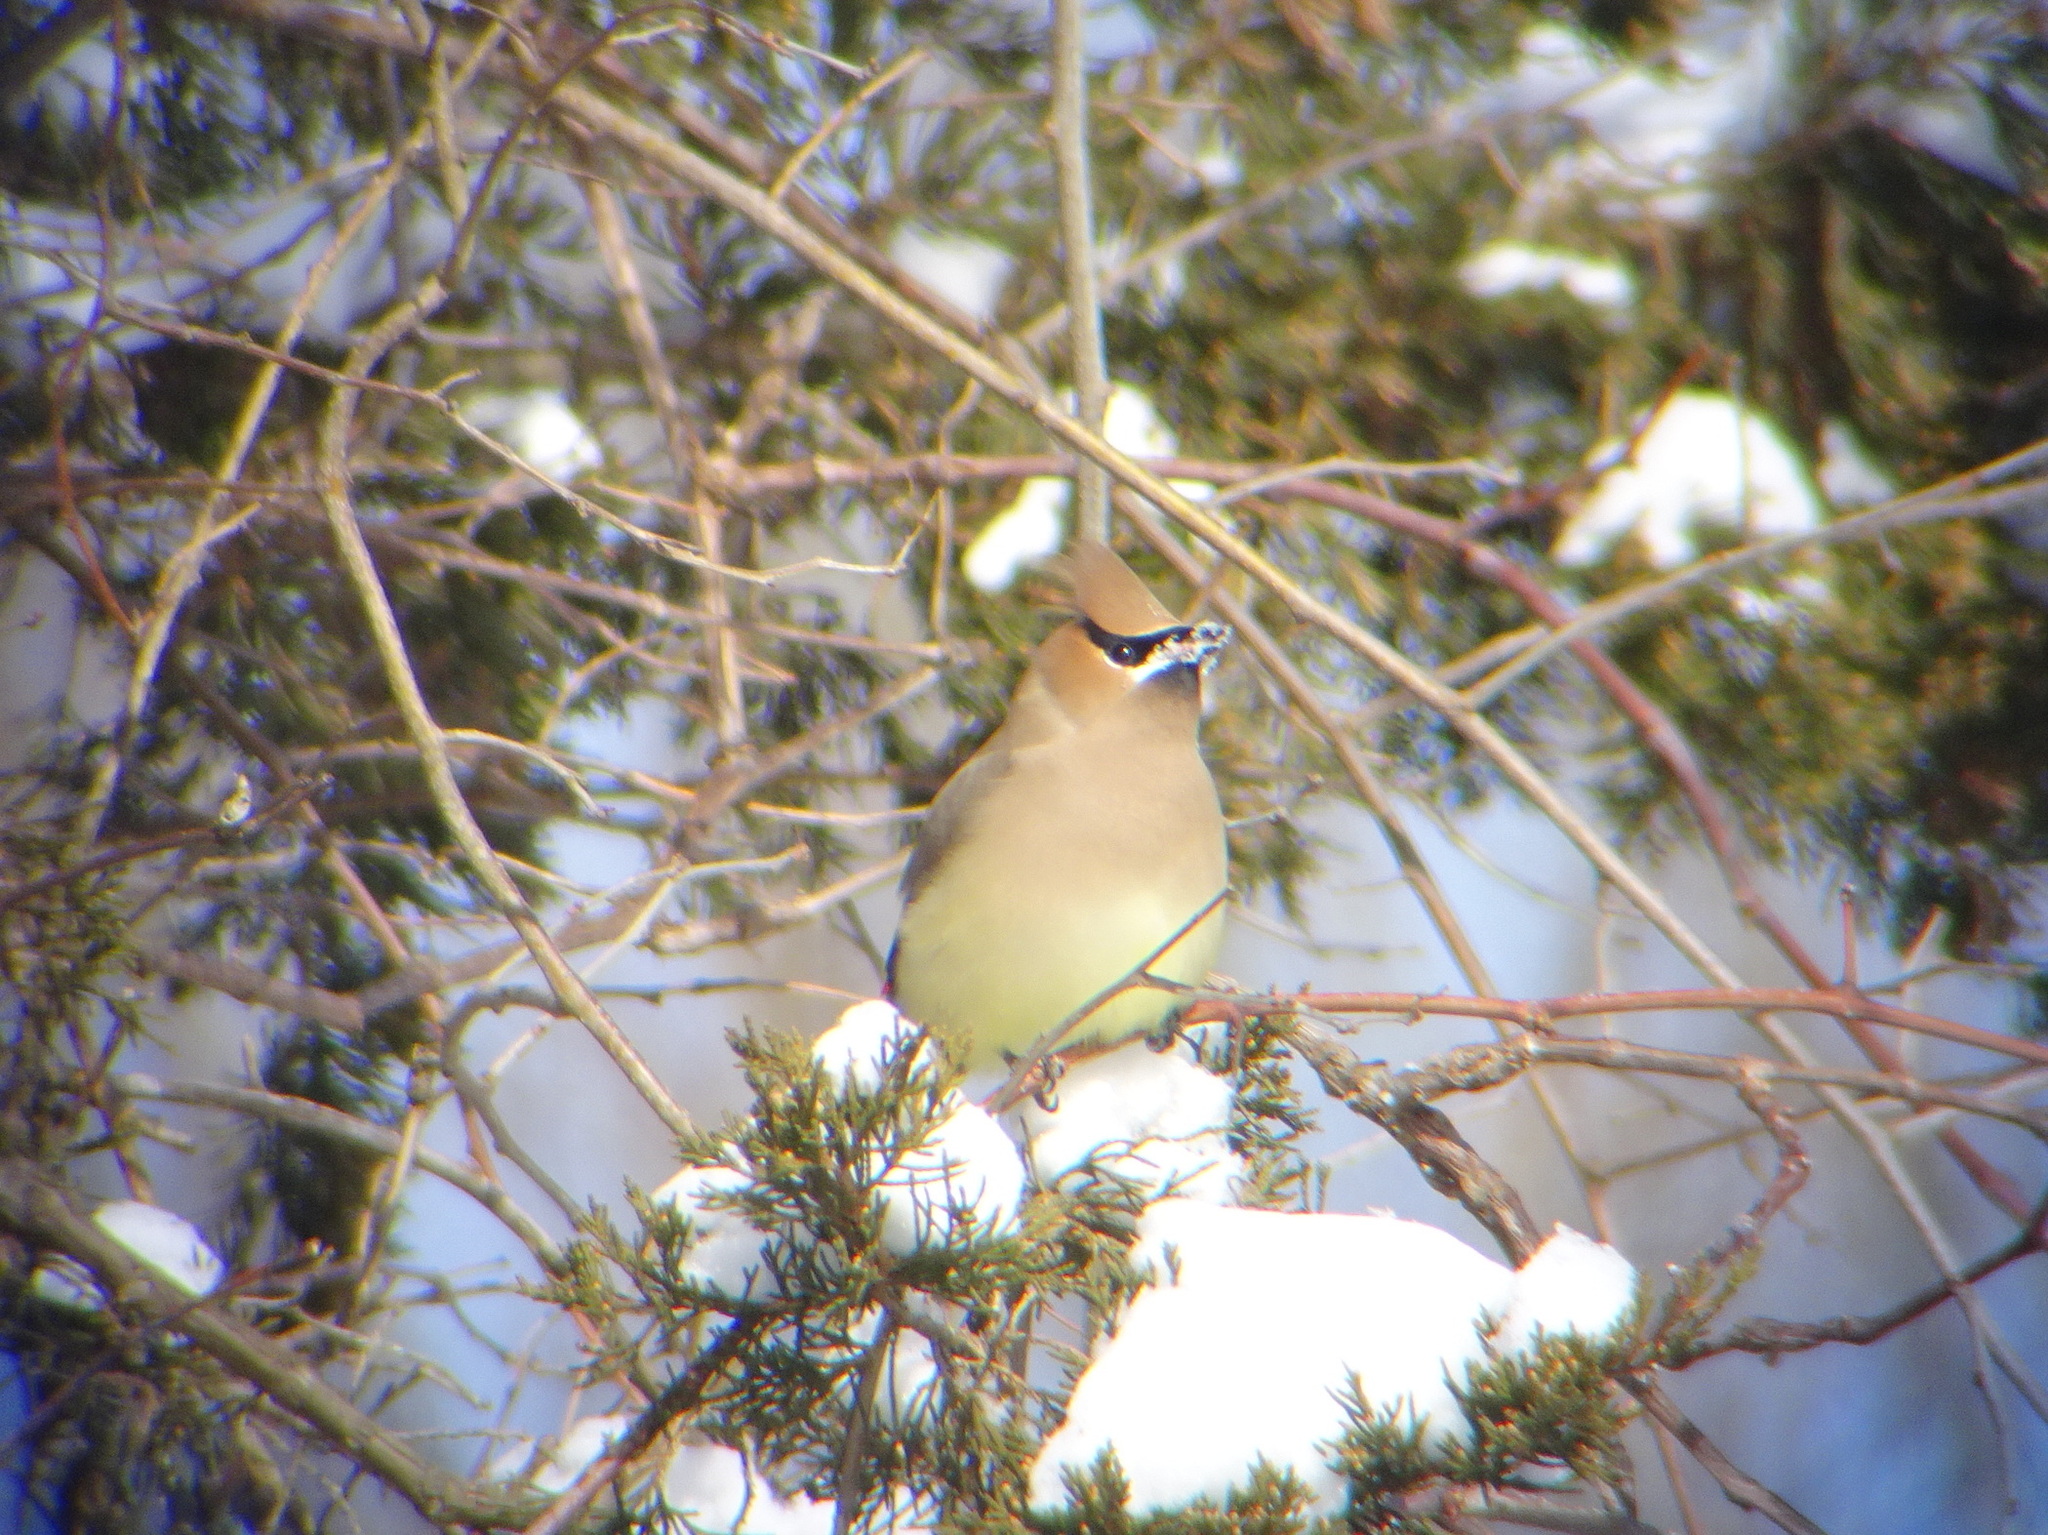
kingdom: Animalia
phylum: Chordata
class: Aves
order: Passeriformes
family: Bombycillidae
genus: Bombycilla
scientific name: Bombycilla cedrorum
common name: Cedar waxwing
